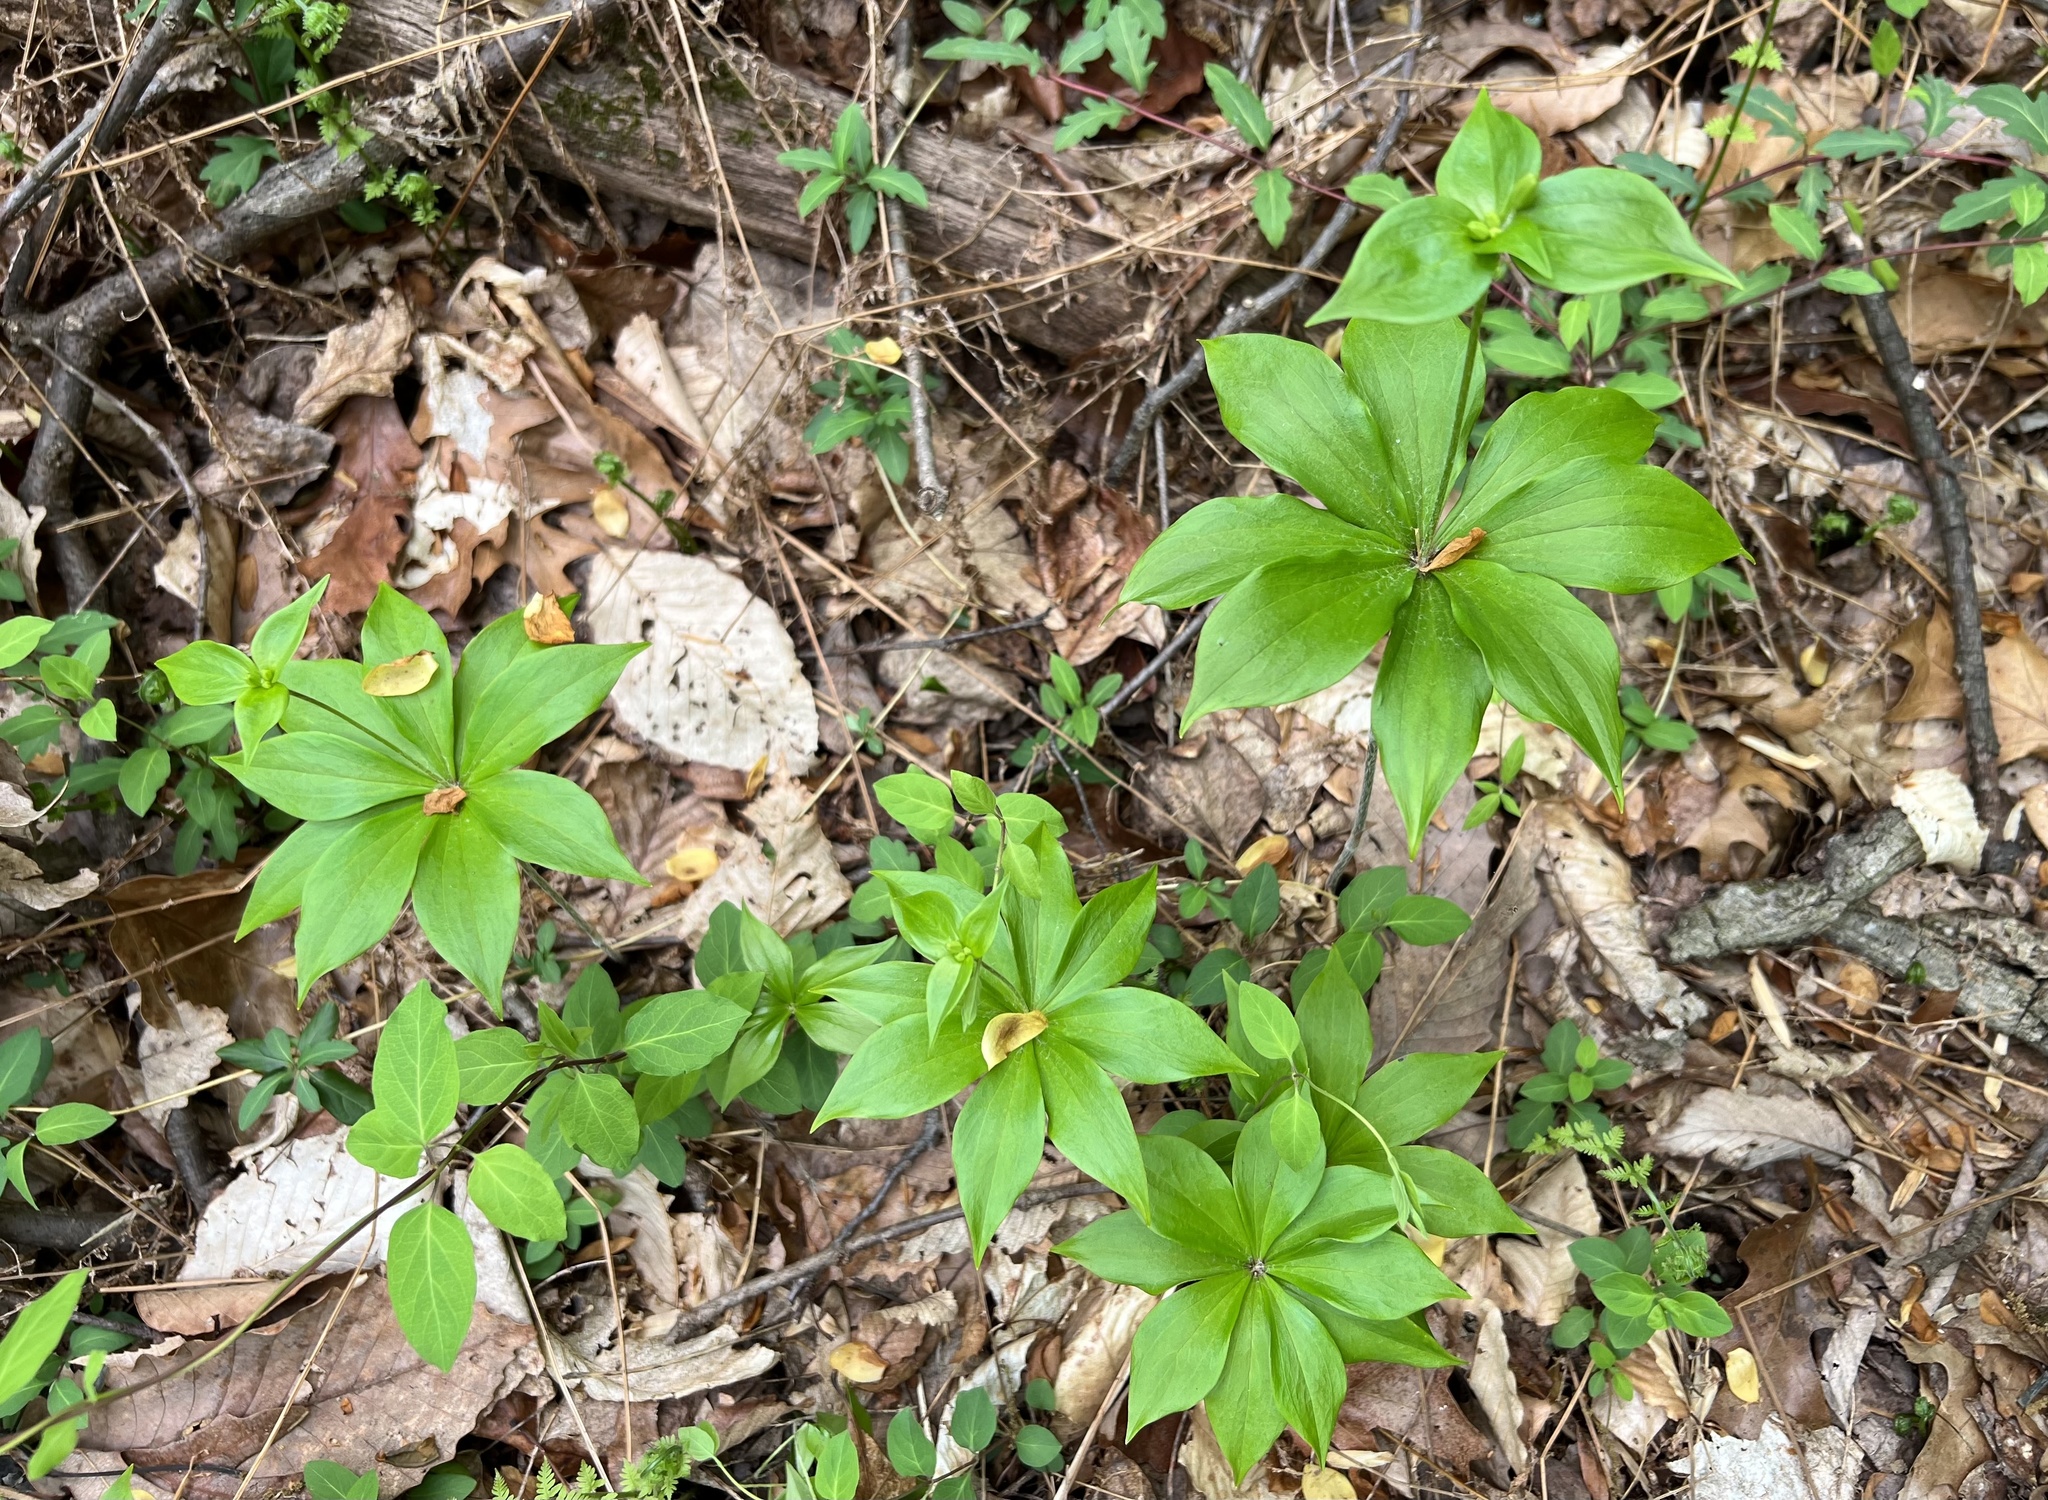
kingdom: Plantae
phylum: Tracheophyta
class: Liliopsida
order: Liliales
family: Liliaceae
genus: Medeola
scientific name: Medeola virginiana
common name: Indian cucumber-root
